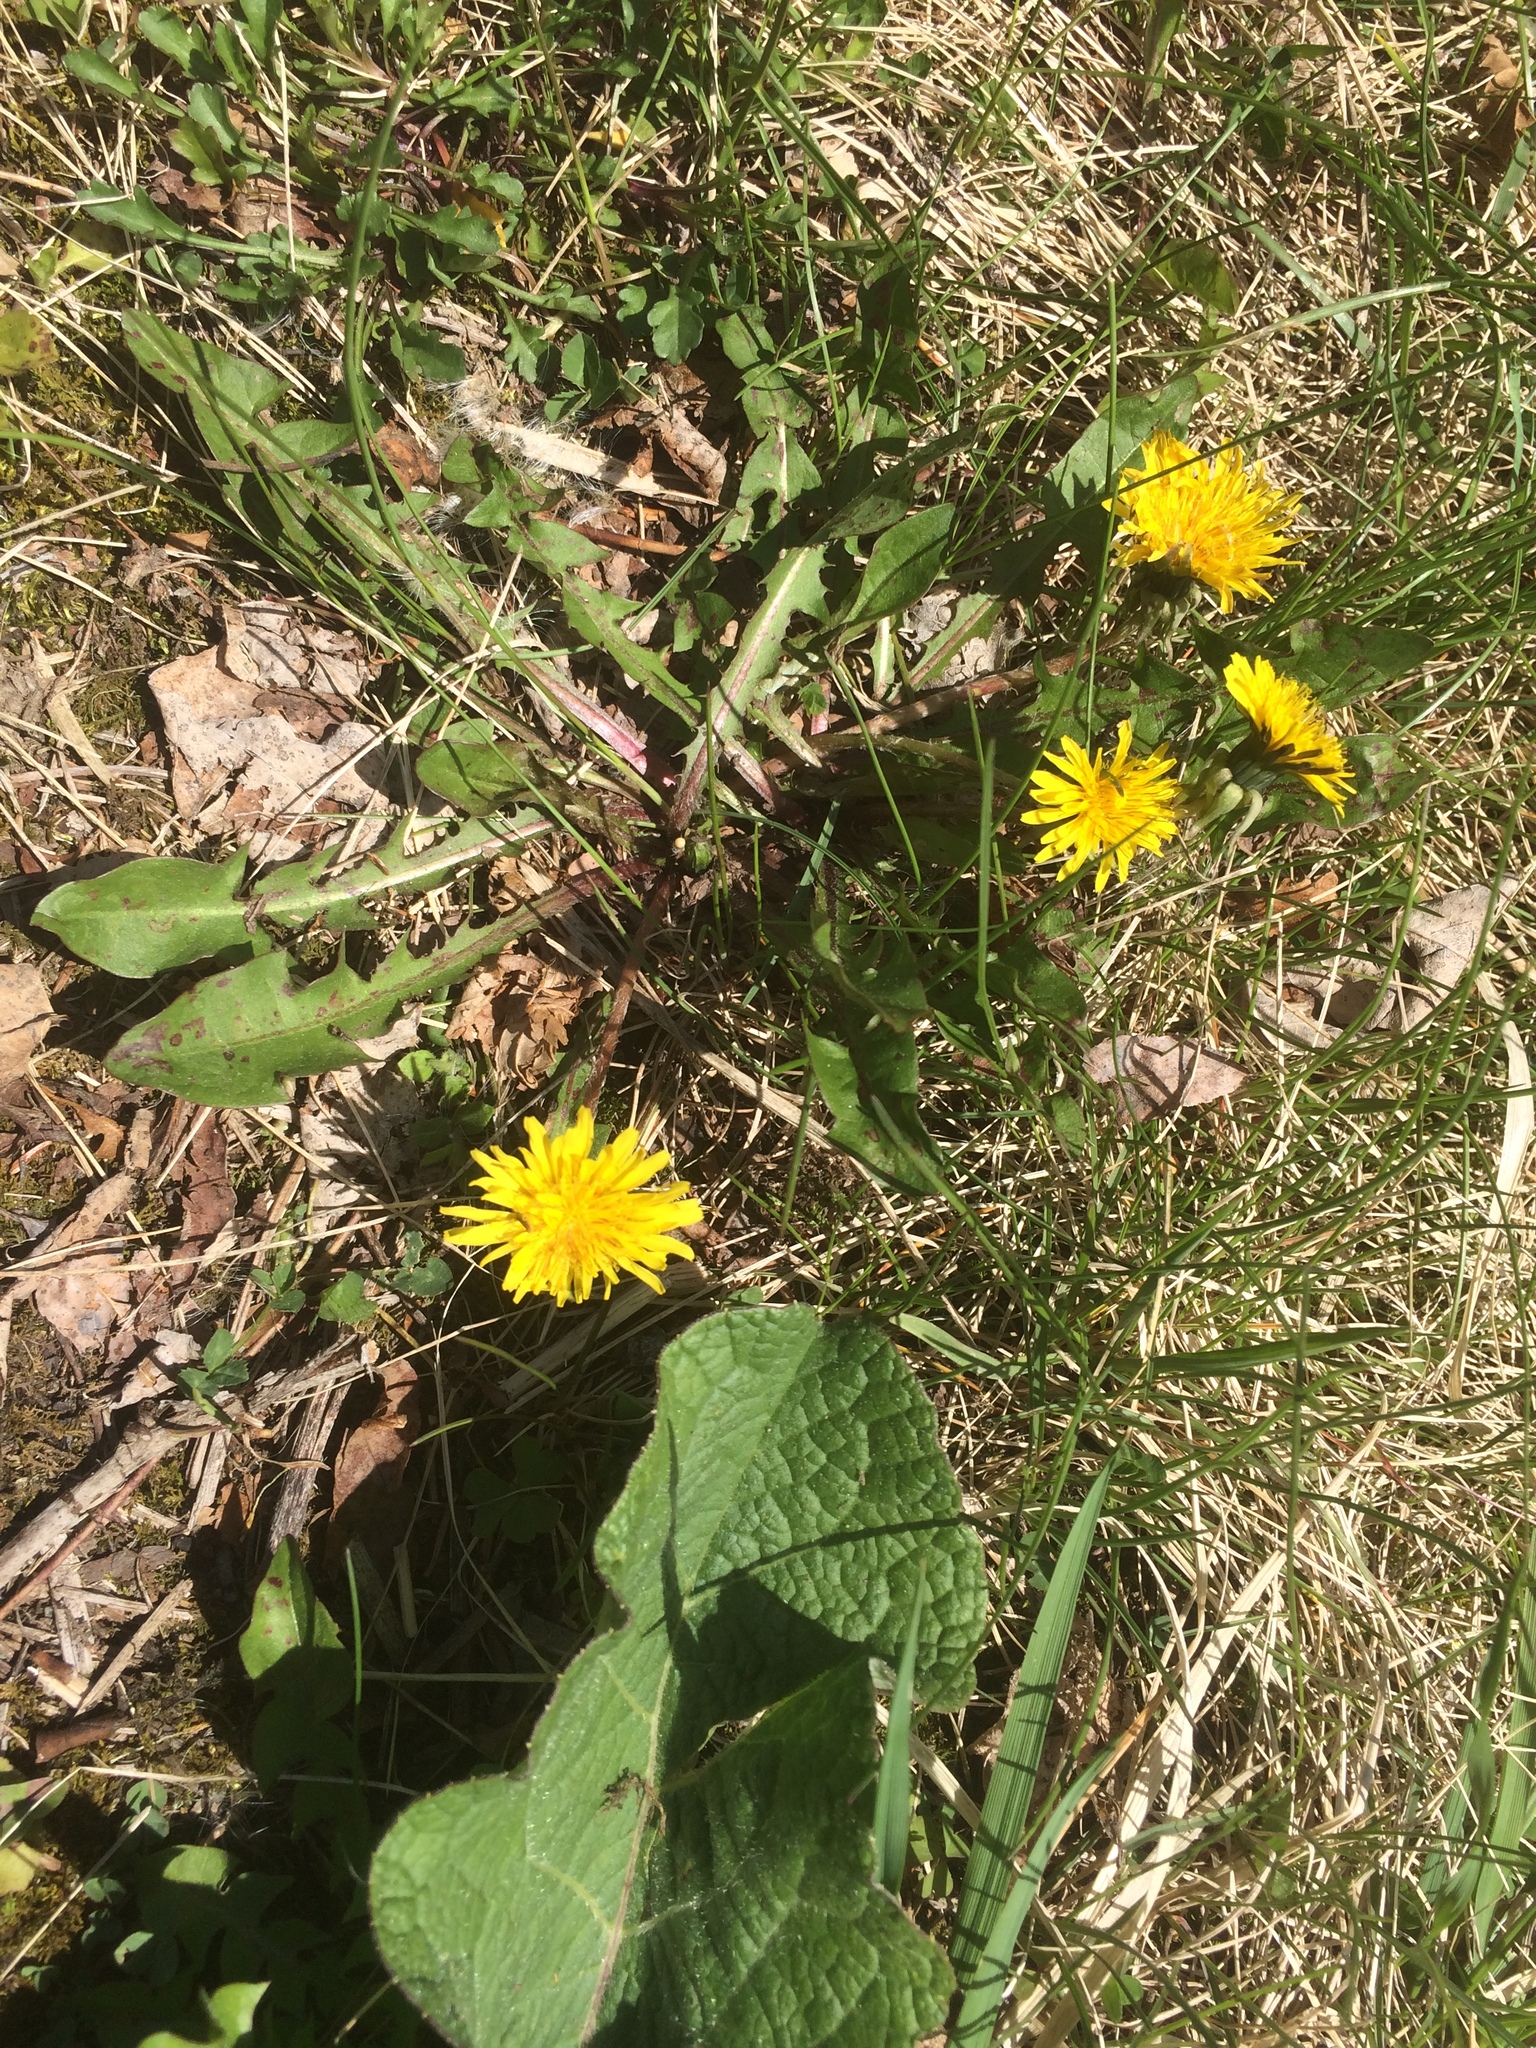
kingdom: Plantae
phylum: Tracheophyta
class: Magnoliopsida
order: Asterales
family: Asteraceae
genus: Taraxacum
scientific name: Taraxacum officinale
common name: Common dandelion
